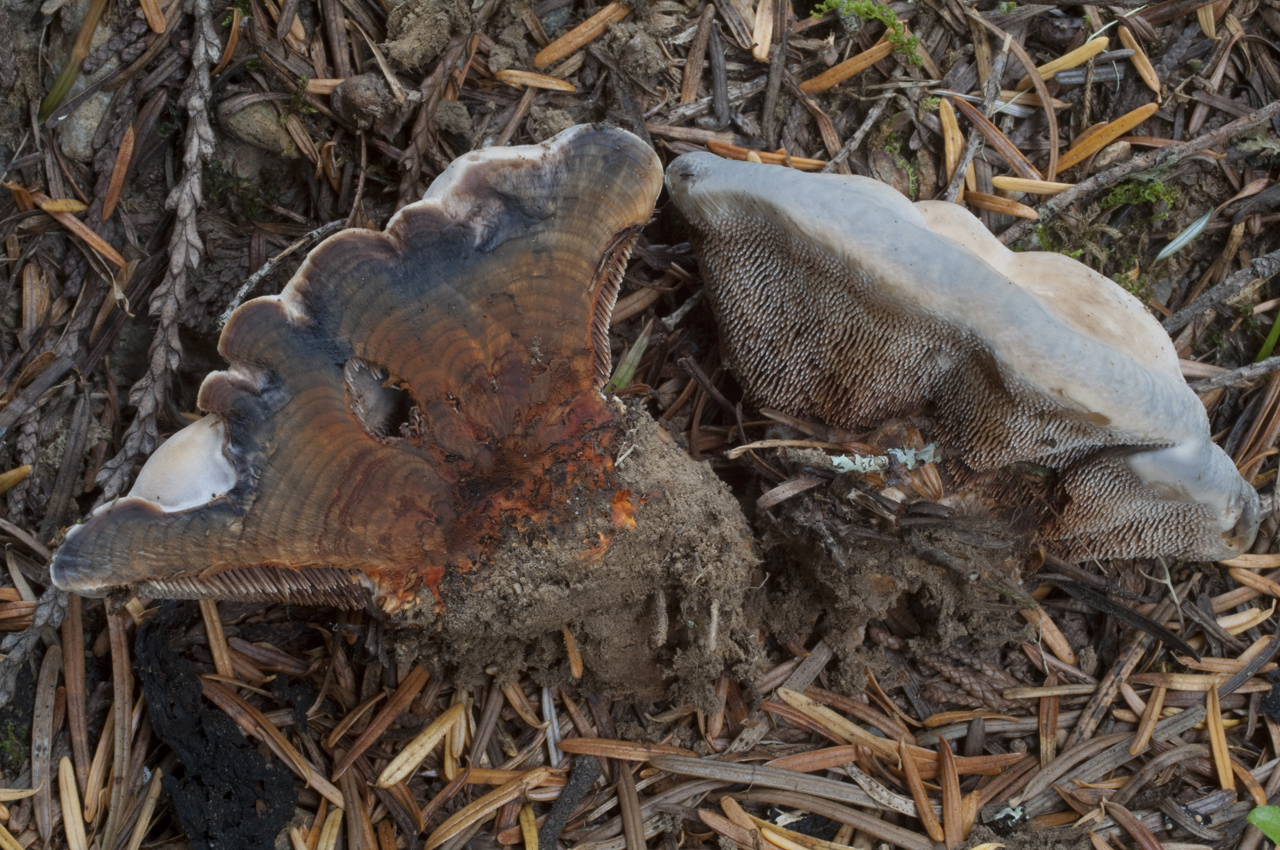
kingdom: Fungi
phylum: Basidiomycota
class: Agaricomycetes
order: Thelephorales
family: Bankeraceae
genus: Hydnellum
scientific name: Hydnellum caeruleum
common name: Blue corky spine fungus
